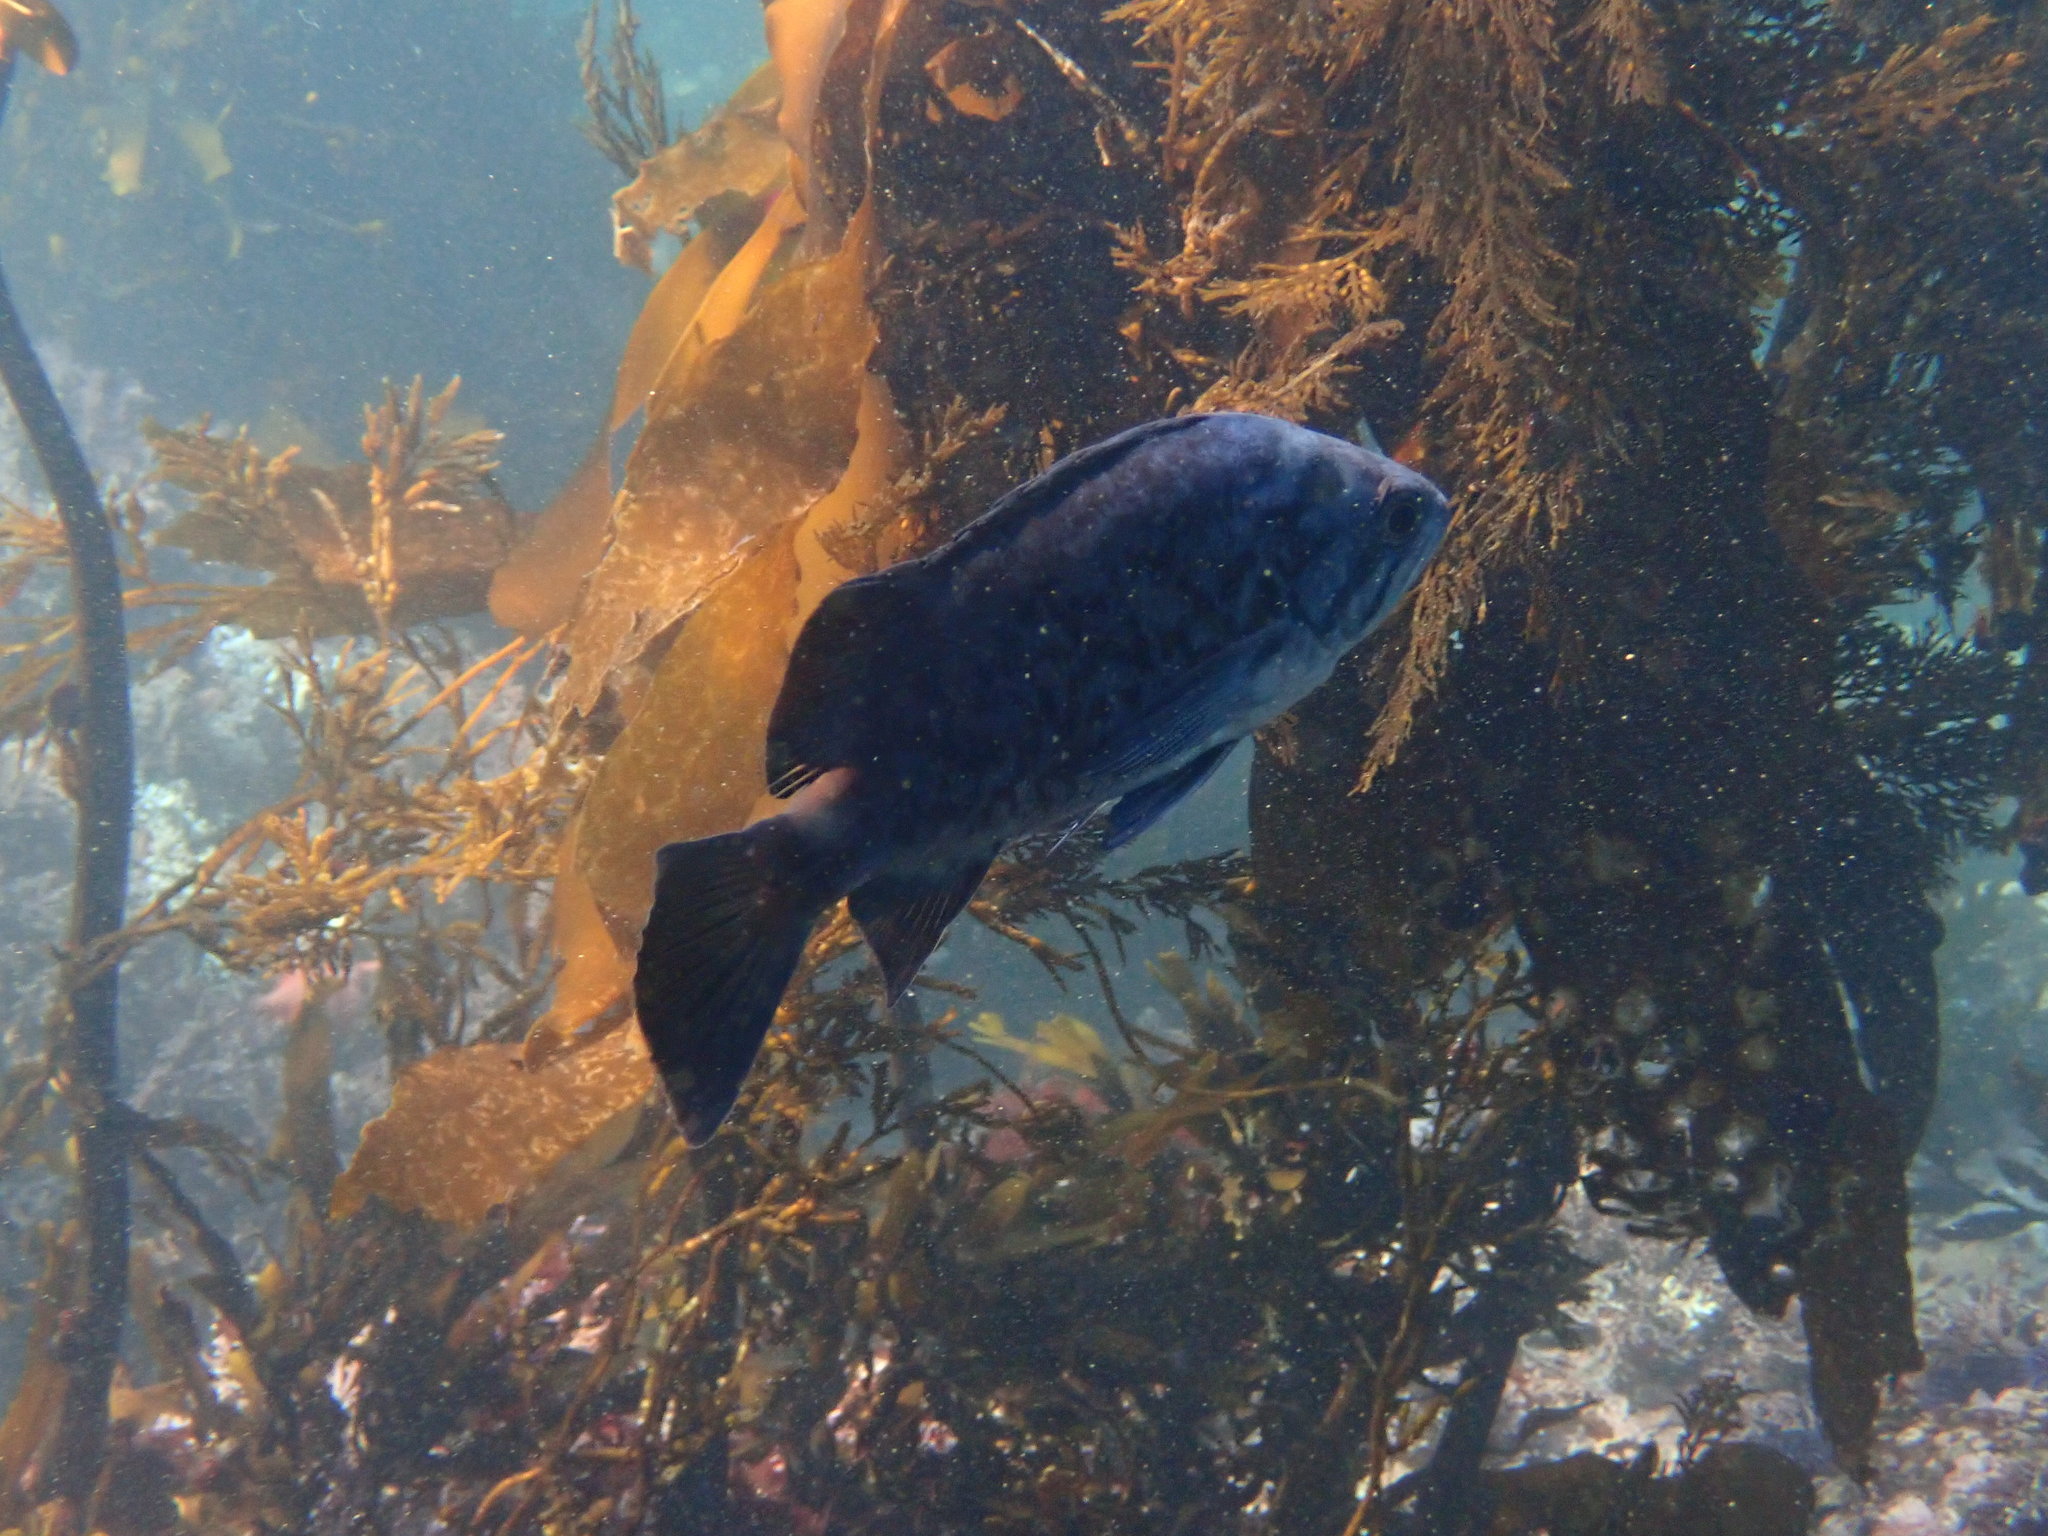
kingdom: Animalia
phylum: Chordata
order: Scorpaeniformes
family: Sebastidae
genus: Sebastes
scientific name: Sebastes mystinus
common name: Blue rockfish
